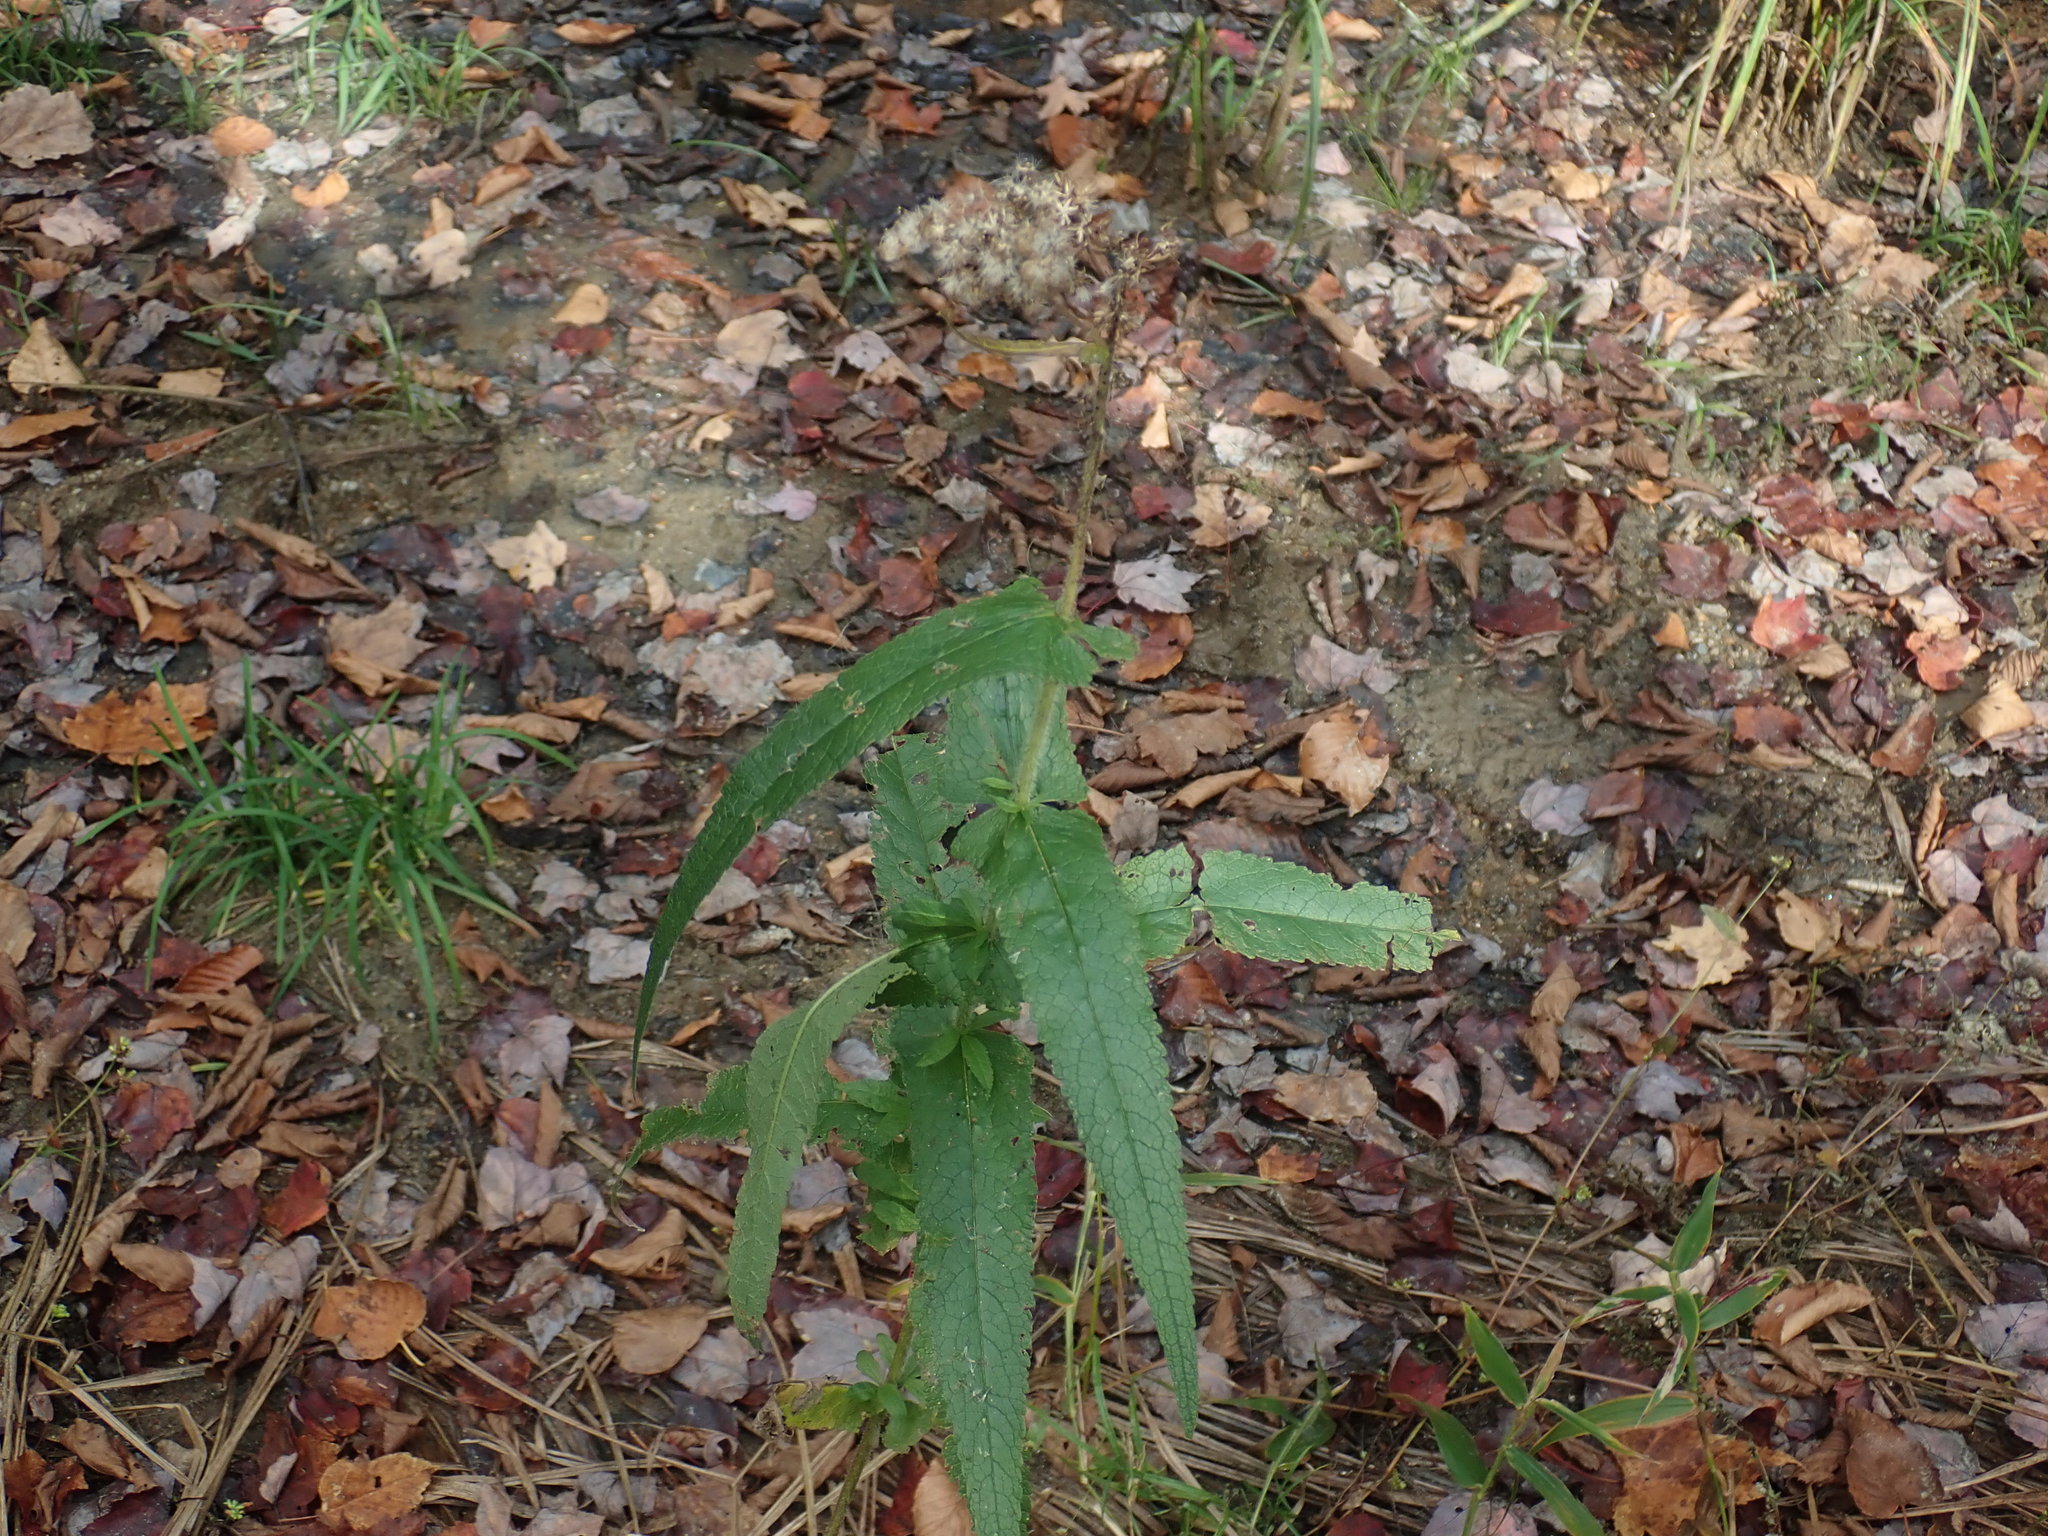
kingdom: Plantae
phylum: Tracheophyta
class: Magnoliopsida
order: Asterales
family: Asteraceae
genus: Eupatorium
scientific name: Eupatorium perfoliatum
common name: Boneset
